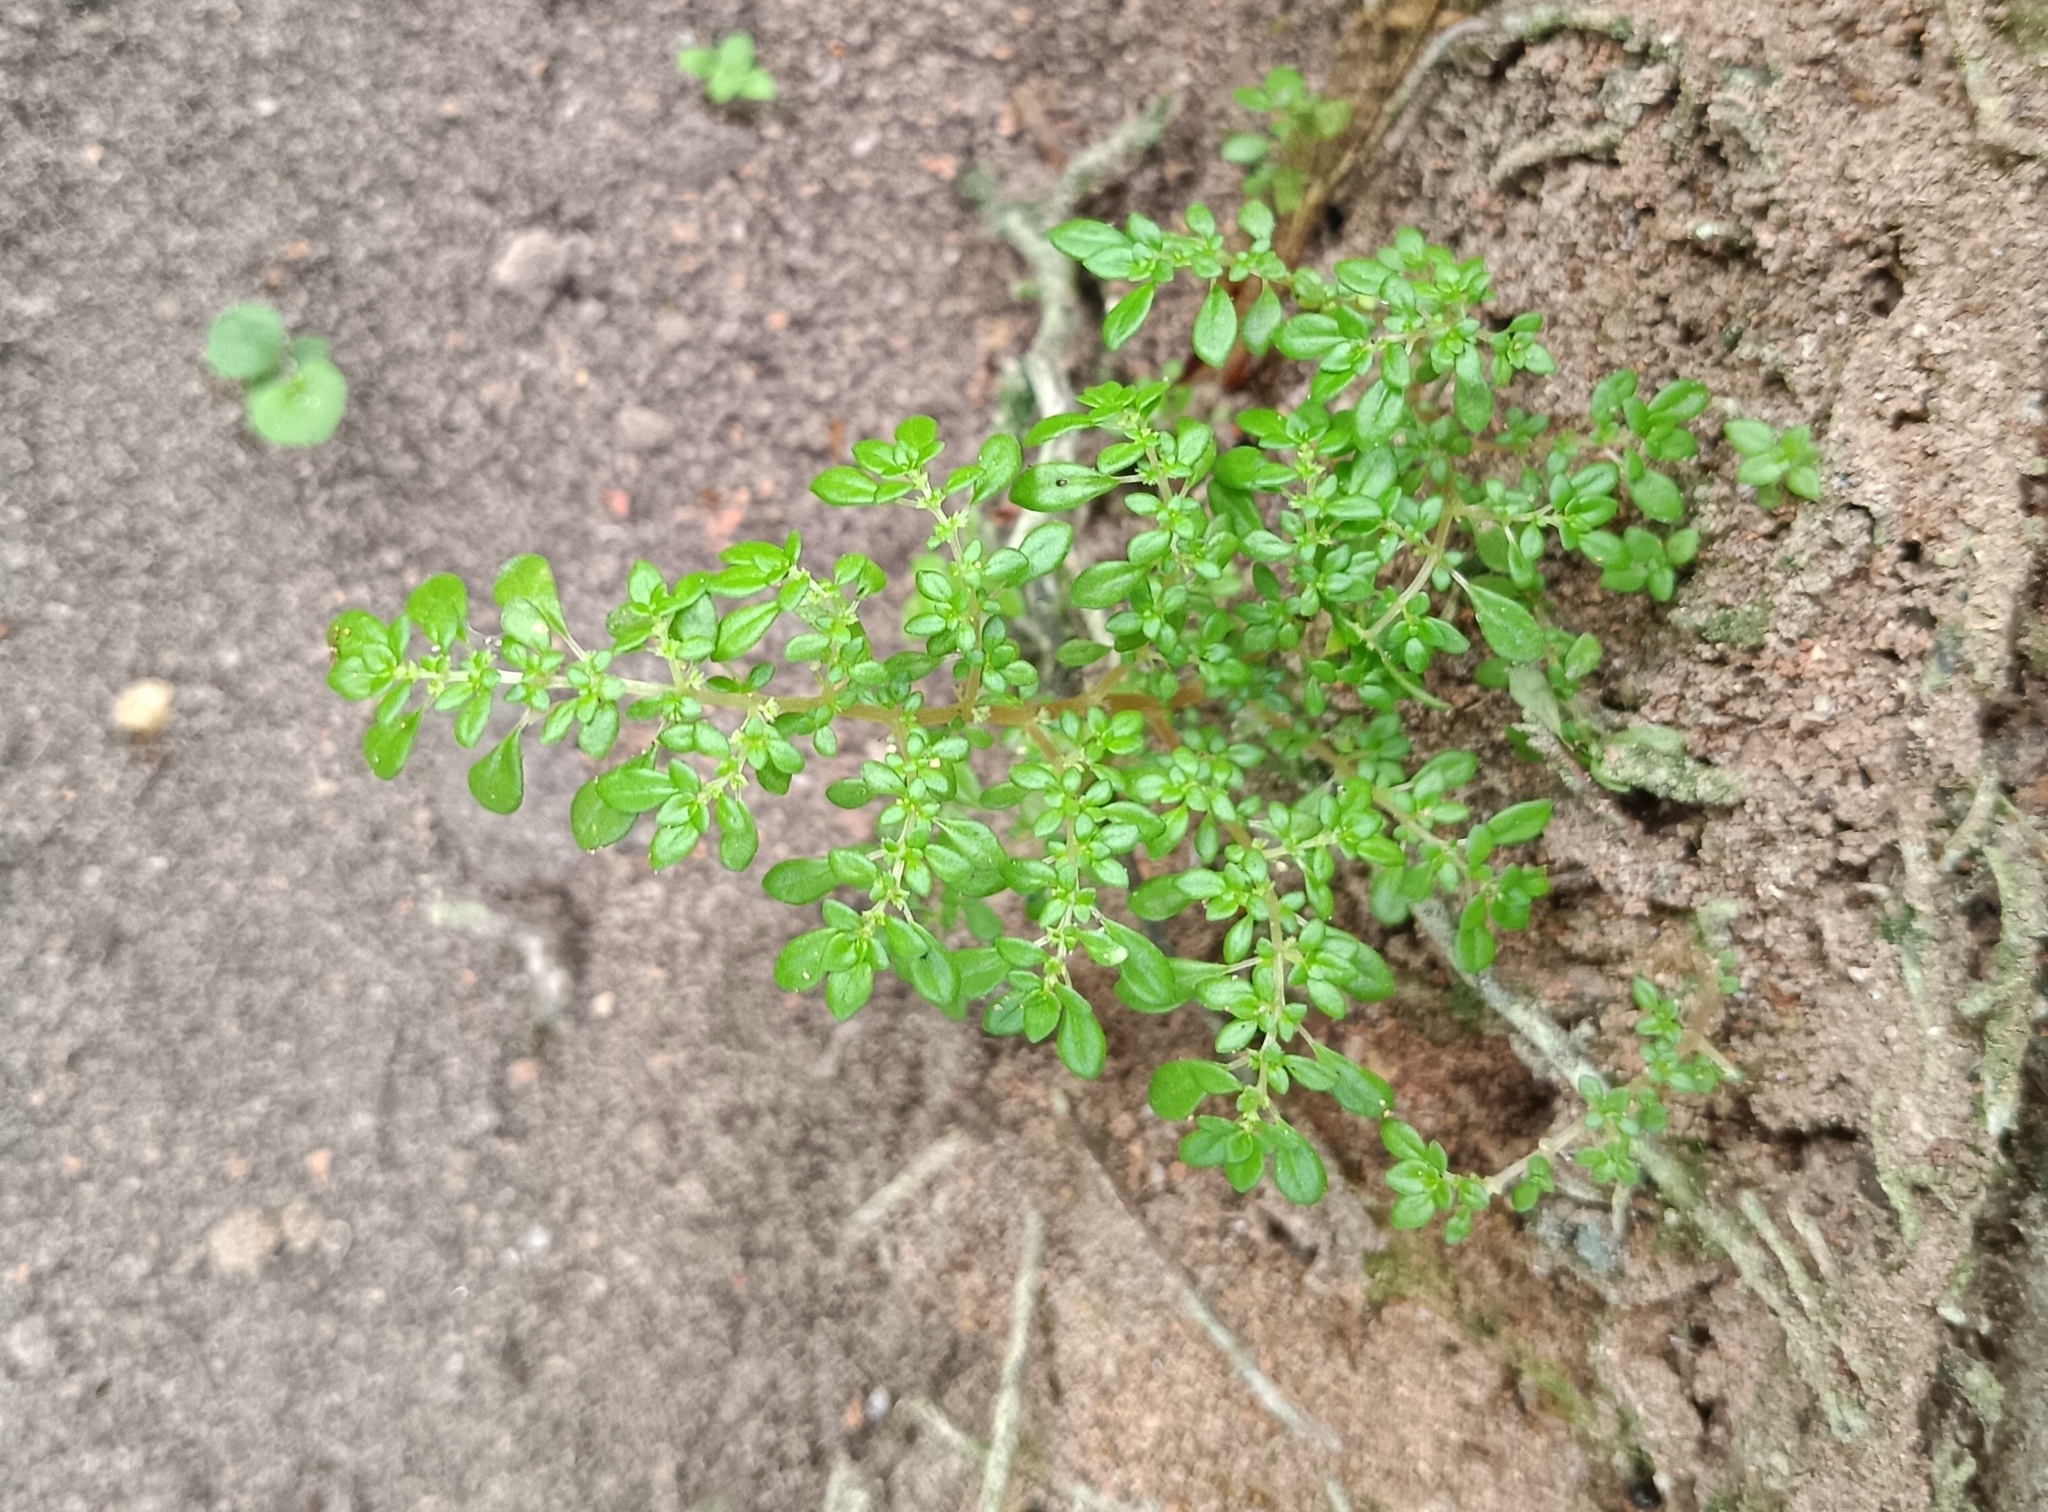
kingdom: Plantae
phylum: Tracheophyta
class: Magnoliopsida
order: Rosales
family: Urticaceae
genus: Pilea
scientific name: Pilea microphylla
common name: Artillery-plant
